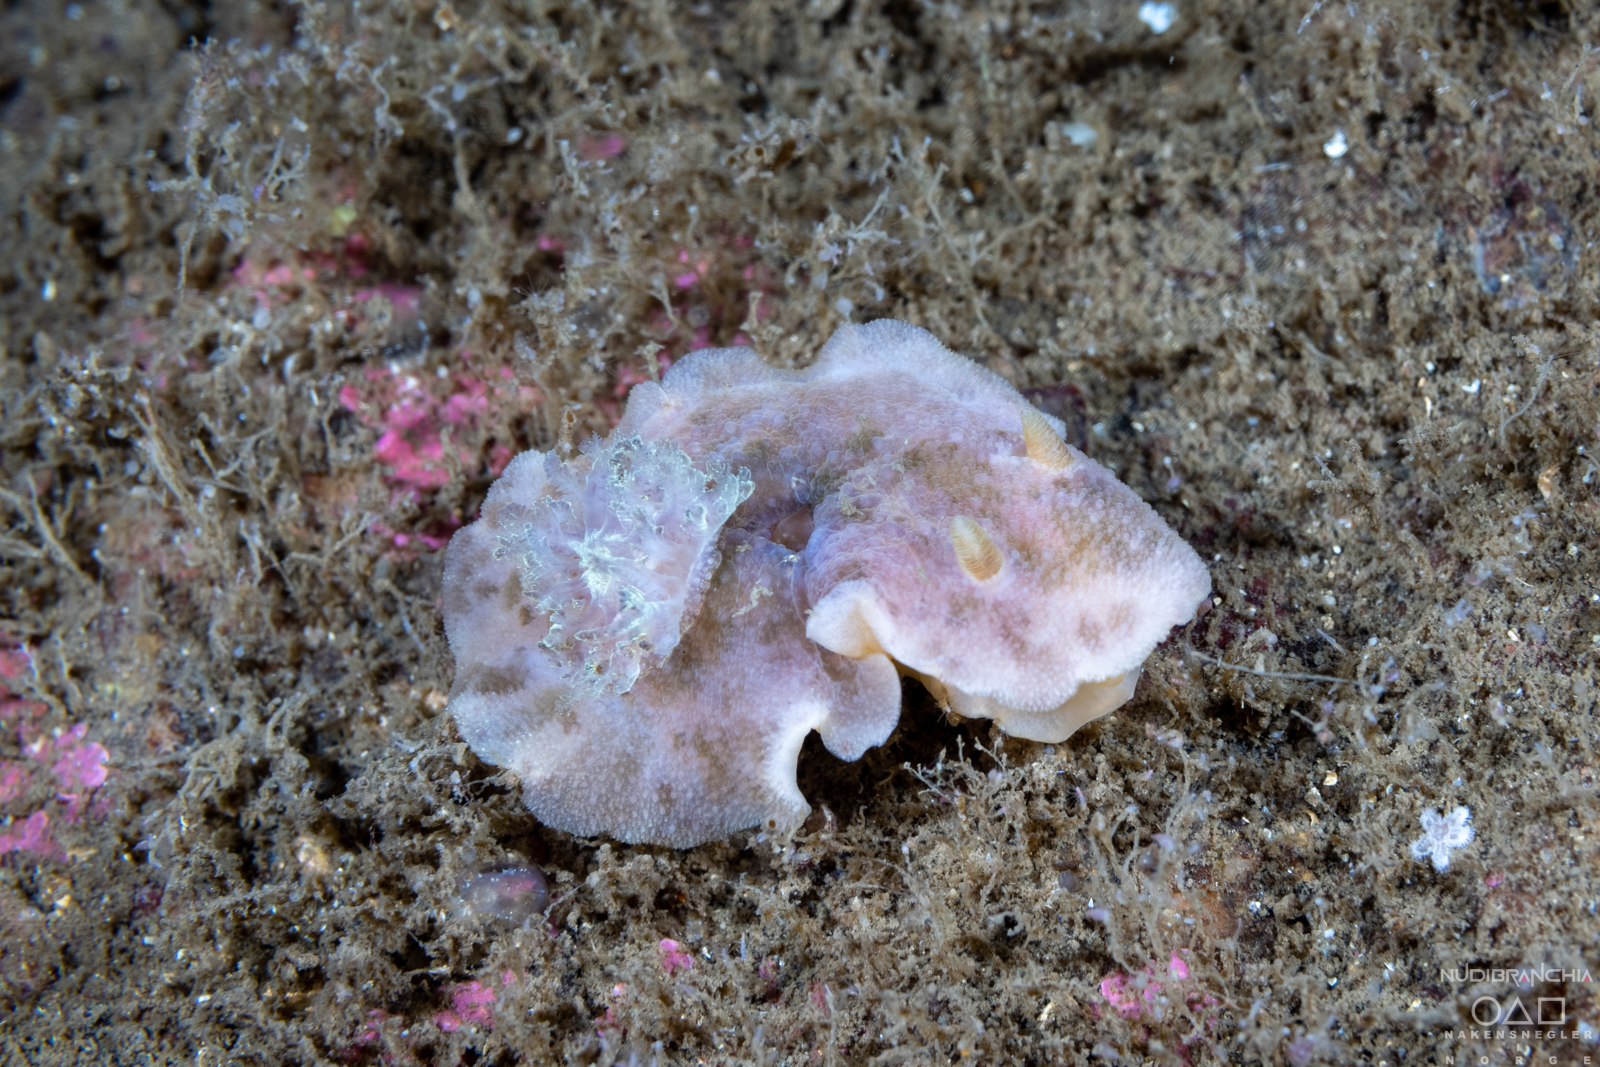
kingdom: Animalia
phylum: Mollusca
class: Gastropoda
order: Nudibranchia
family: Dorididae
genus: Doris
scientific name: Doris pseudoargus
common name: Sea lemon
